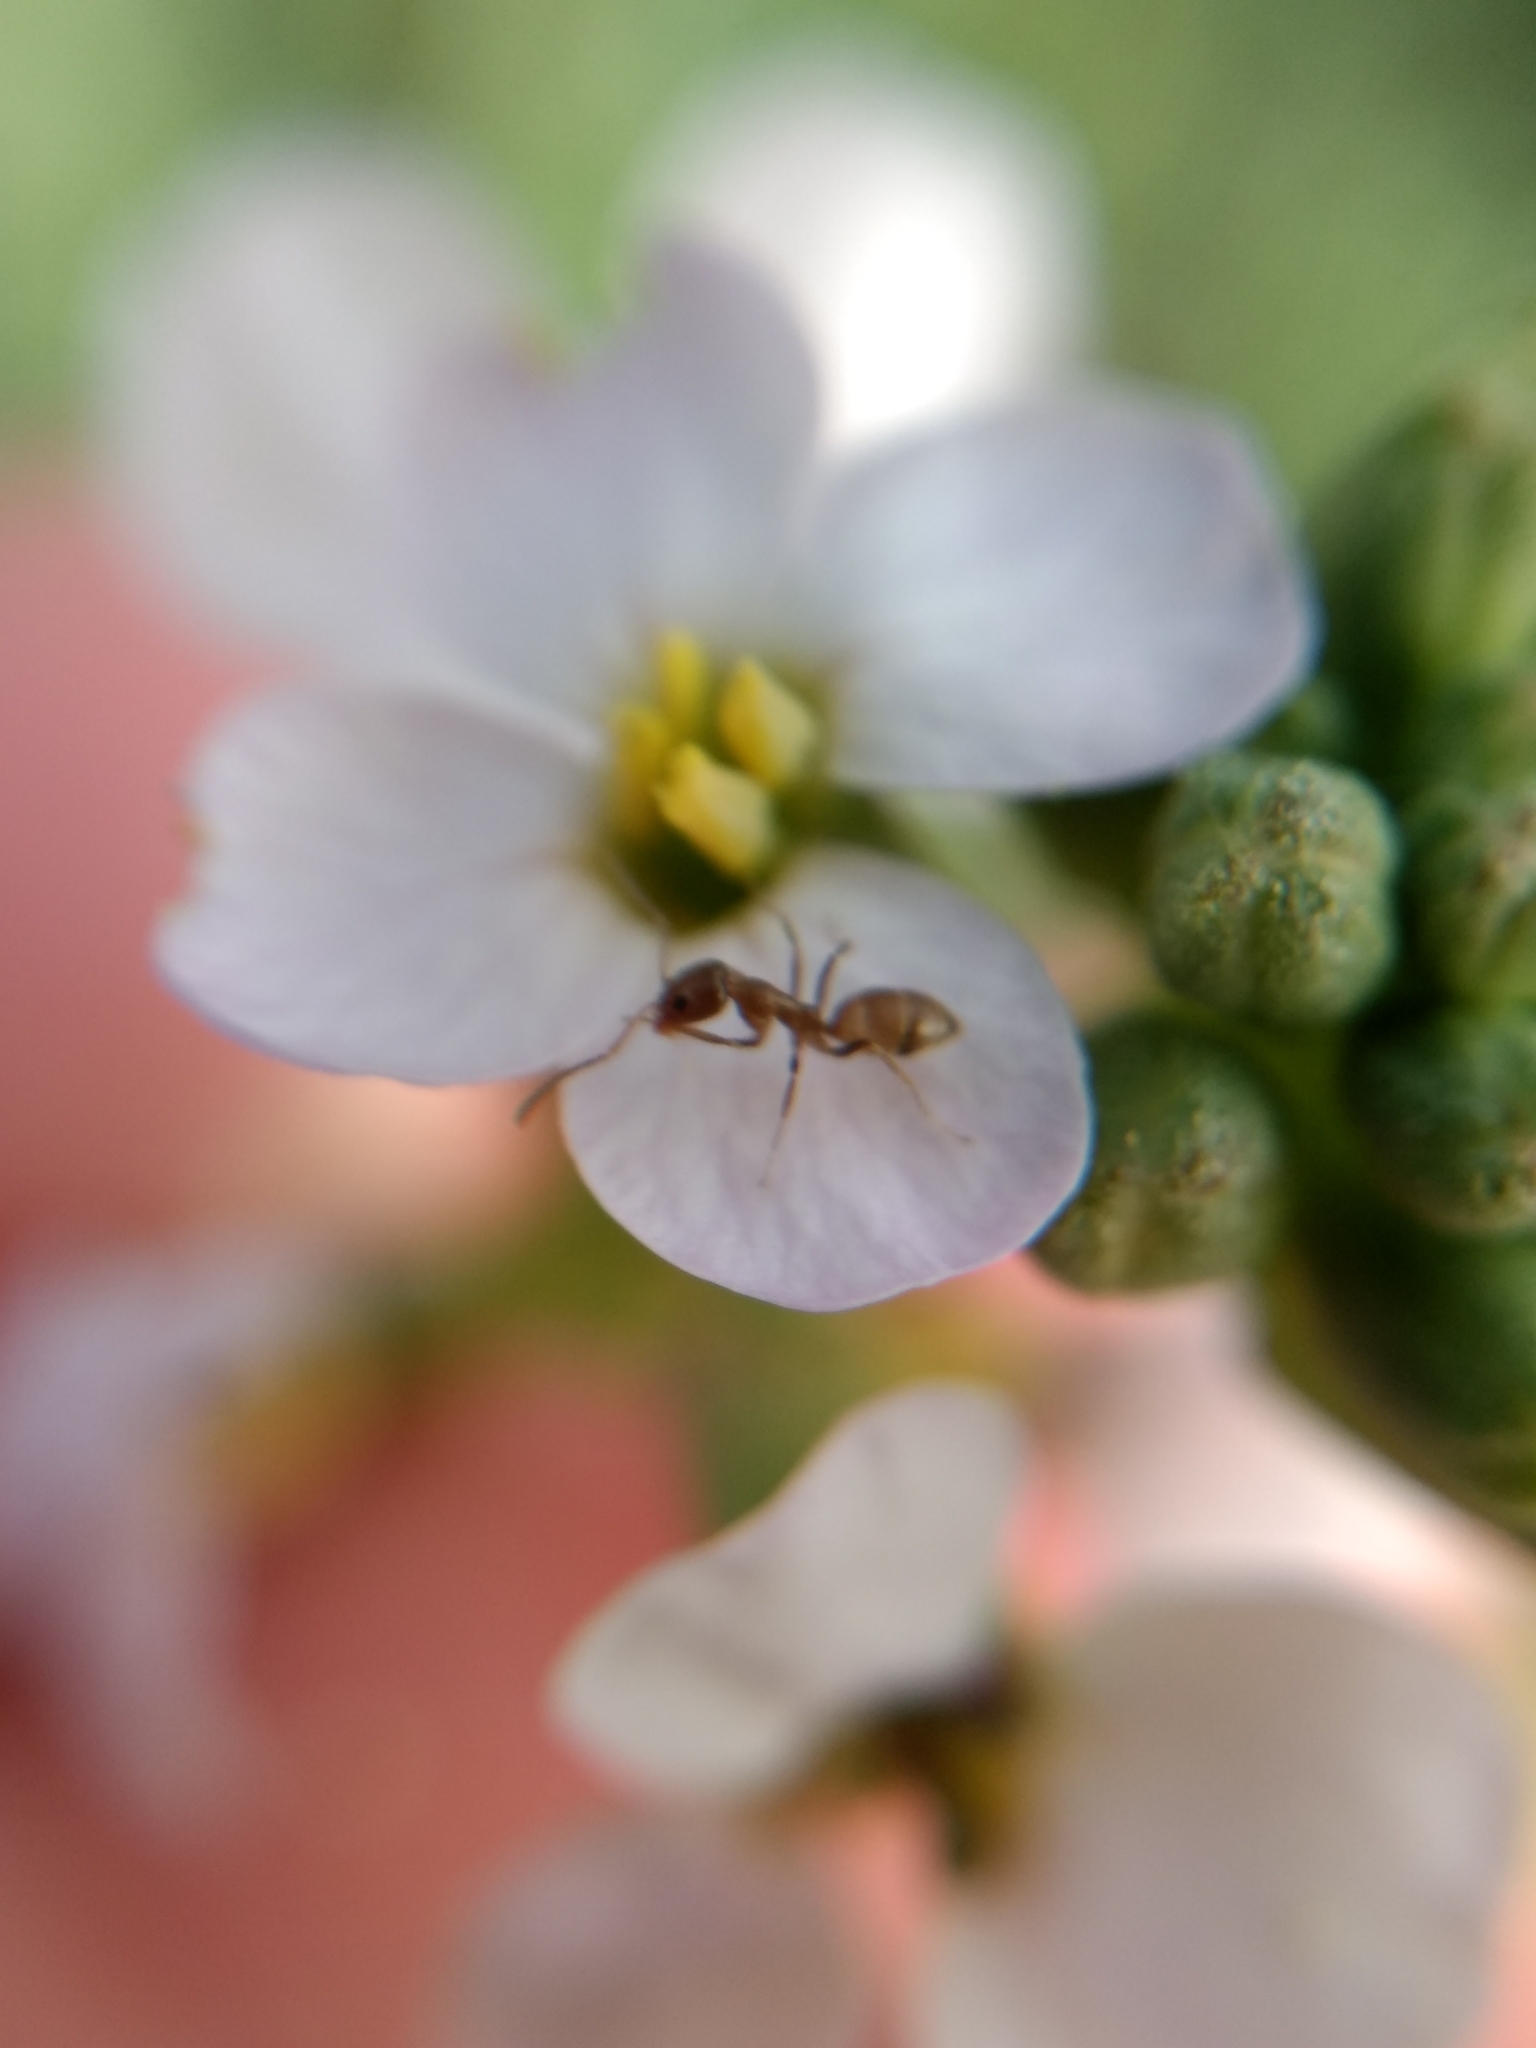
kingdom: Animalia
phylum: Arthropoda
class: Insecta
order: Hymenoptera
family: Formicidae
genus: Linepithema
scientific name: Linepithema humile
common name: Argentine ant
